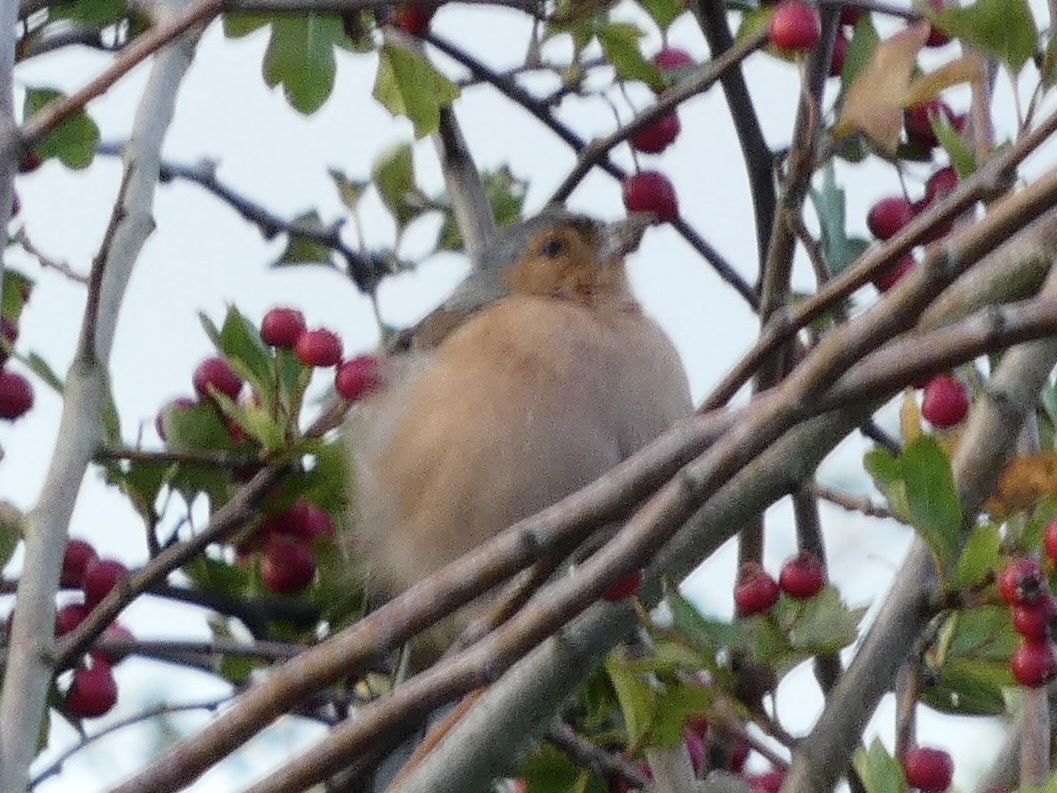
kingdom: Animalia
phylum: Chordata
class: Aves
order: Passeriformes
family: Fringillidae
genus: Fringilla
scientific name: Fringilla coelebs
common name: Common chaffinch
